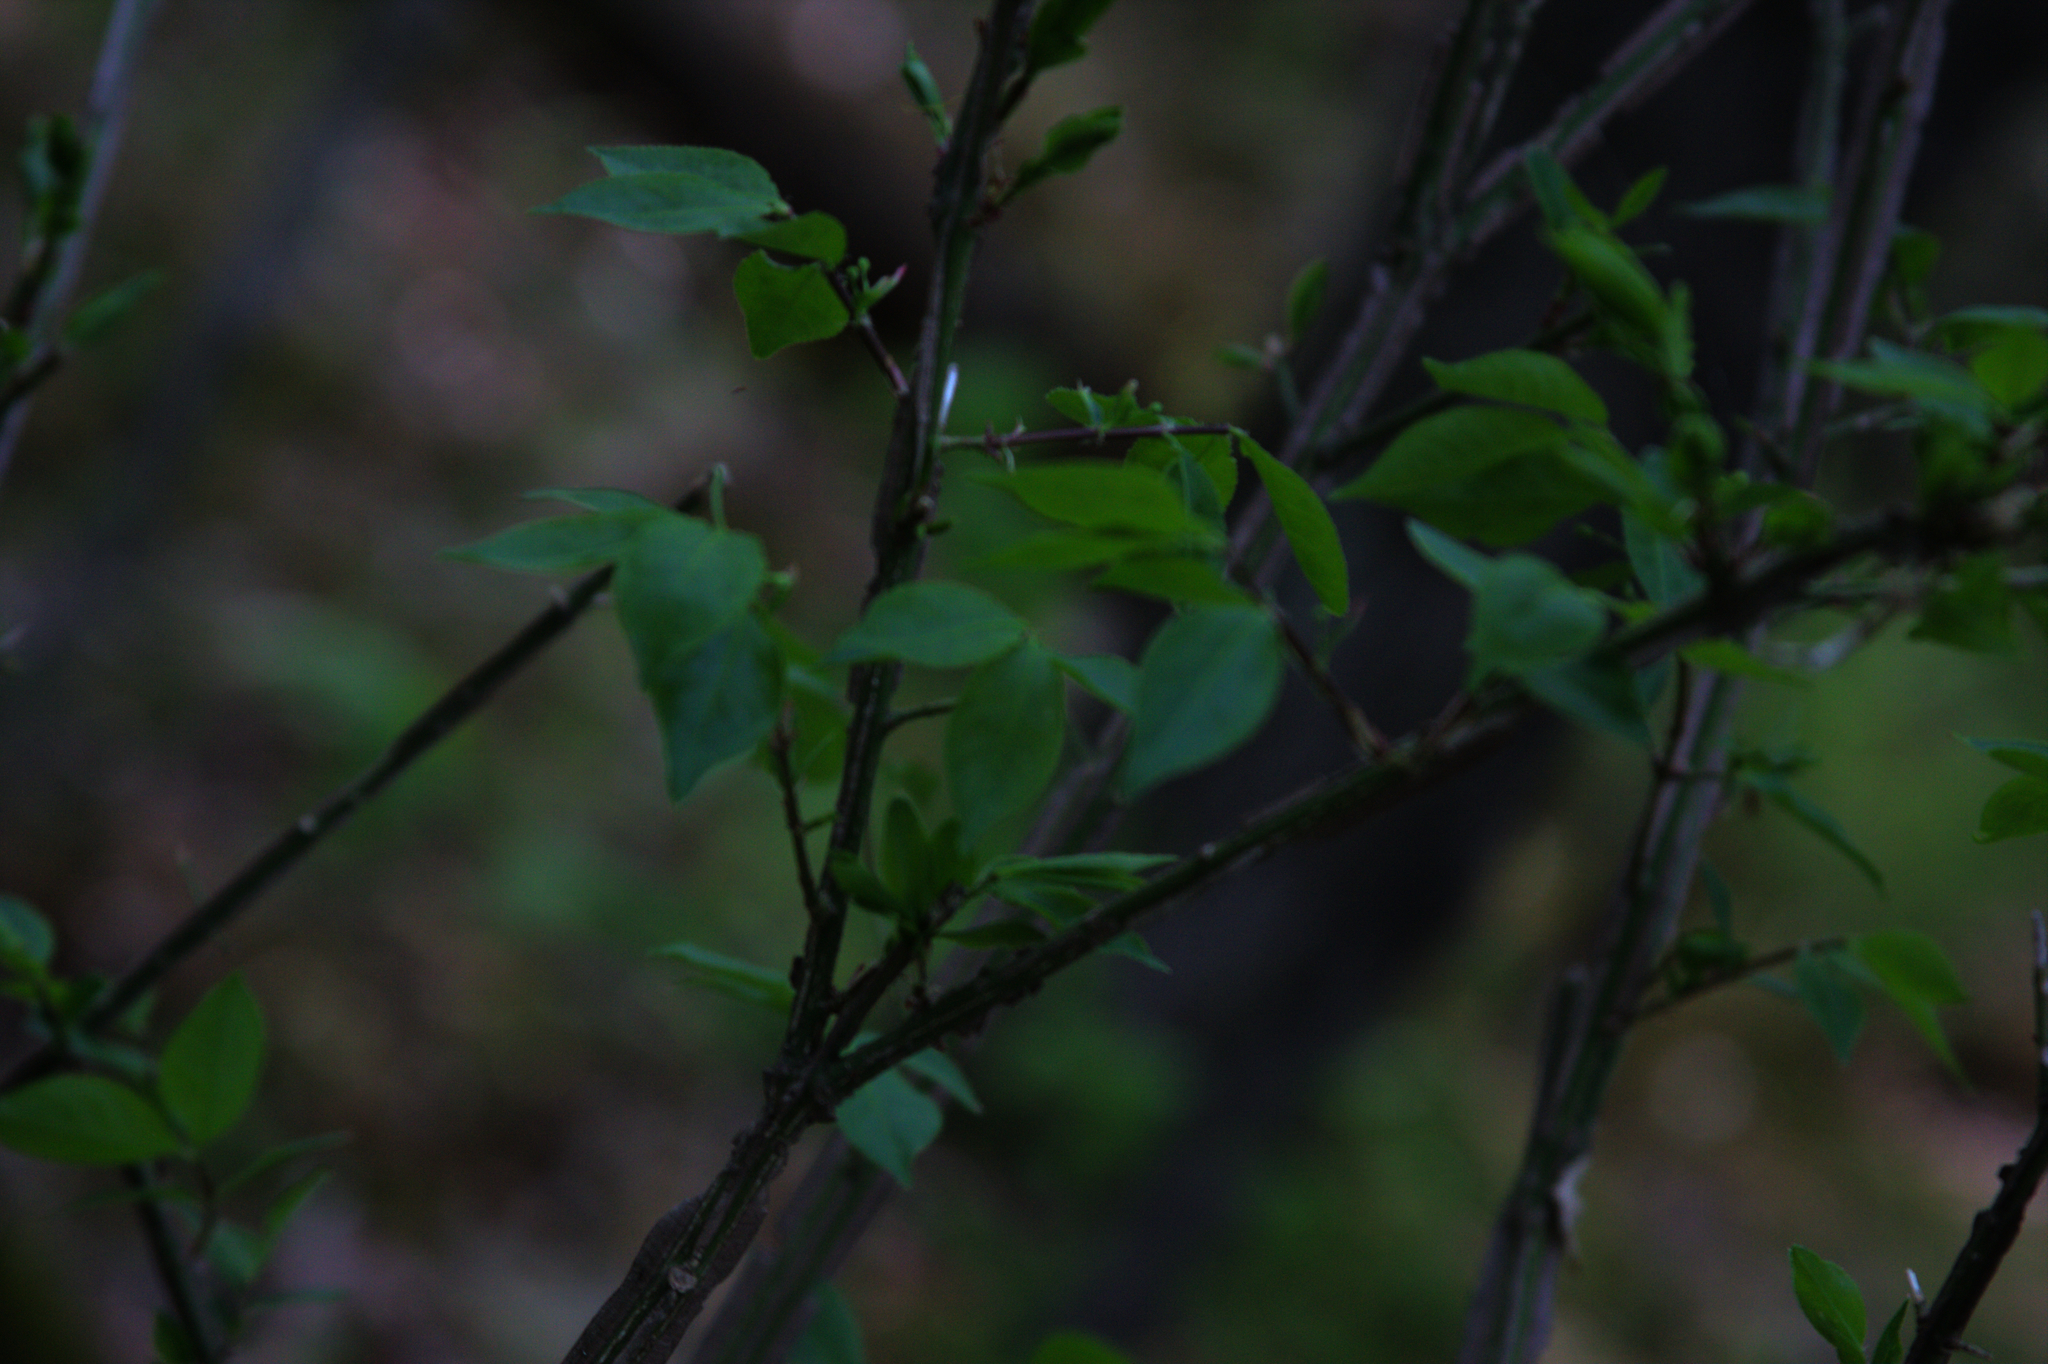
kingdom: Plantae
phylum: Tracheophyta
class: Magnoliopsida
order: Celastrales
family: Celastraceae
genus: Euonymus
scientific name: Euonymus alatus
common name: Winged euonymus
